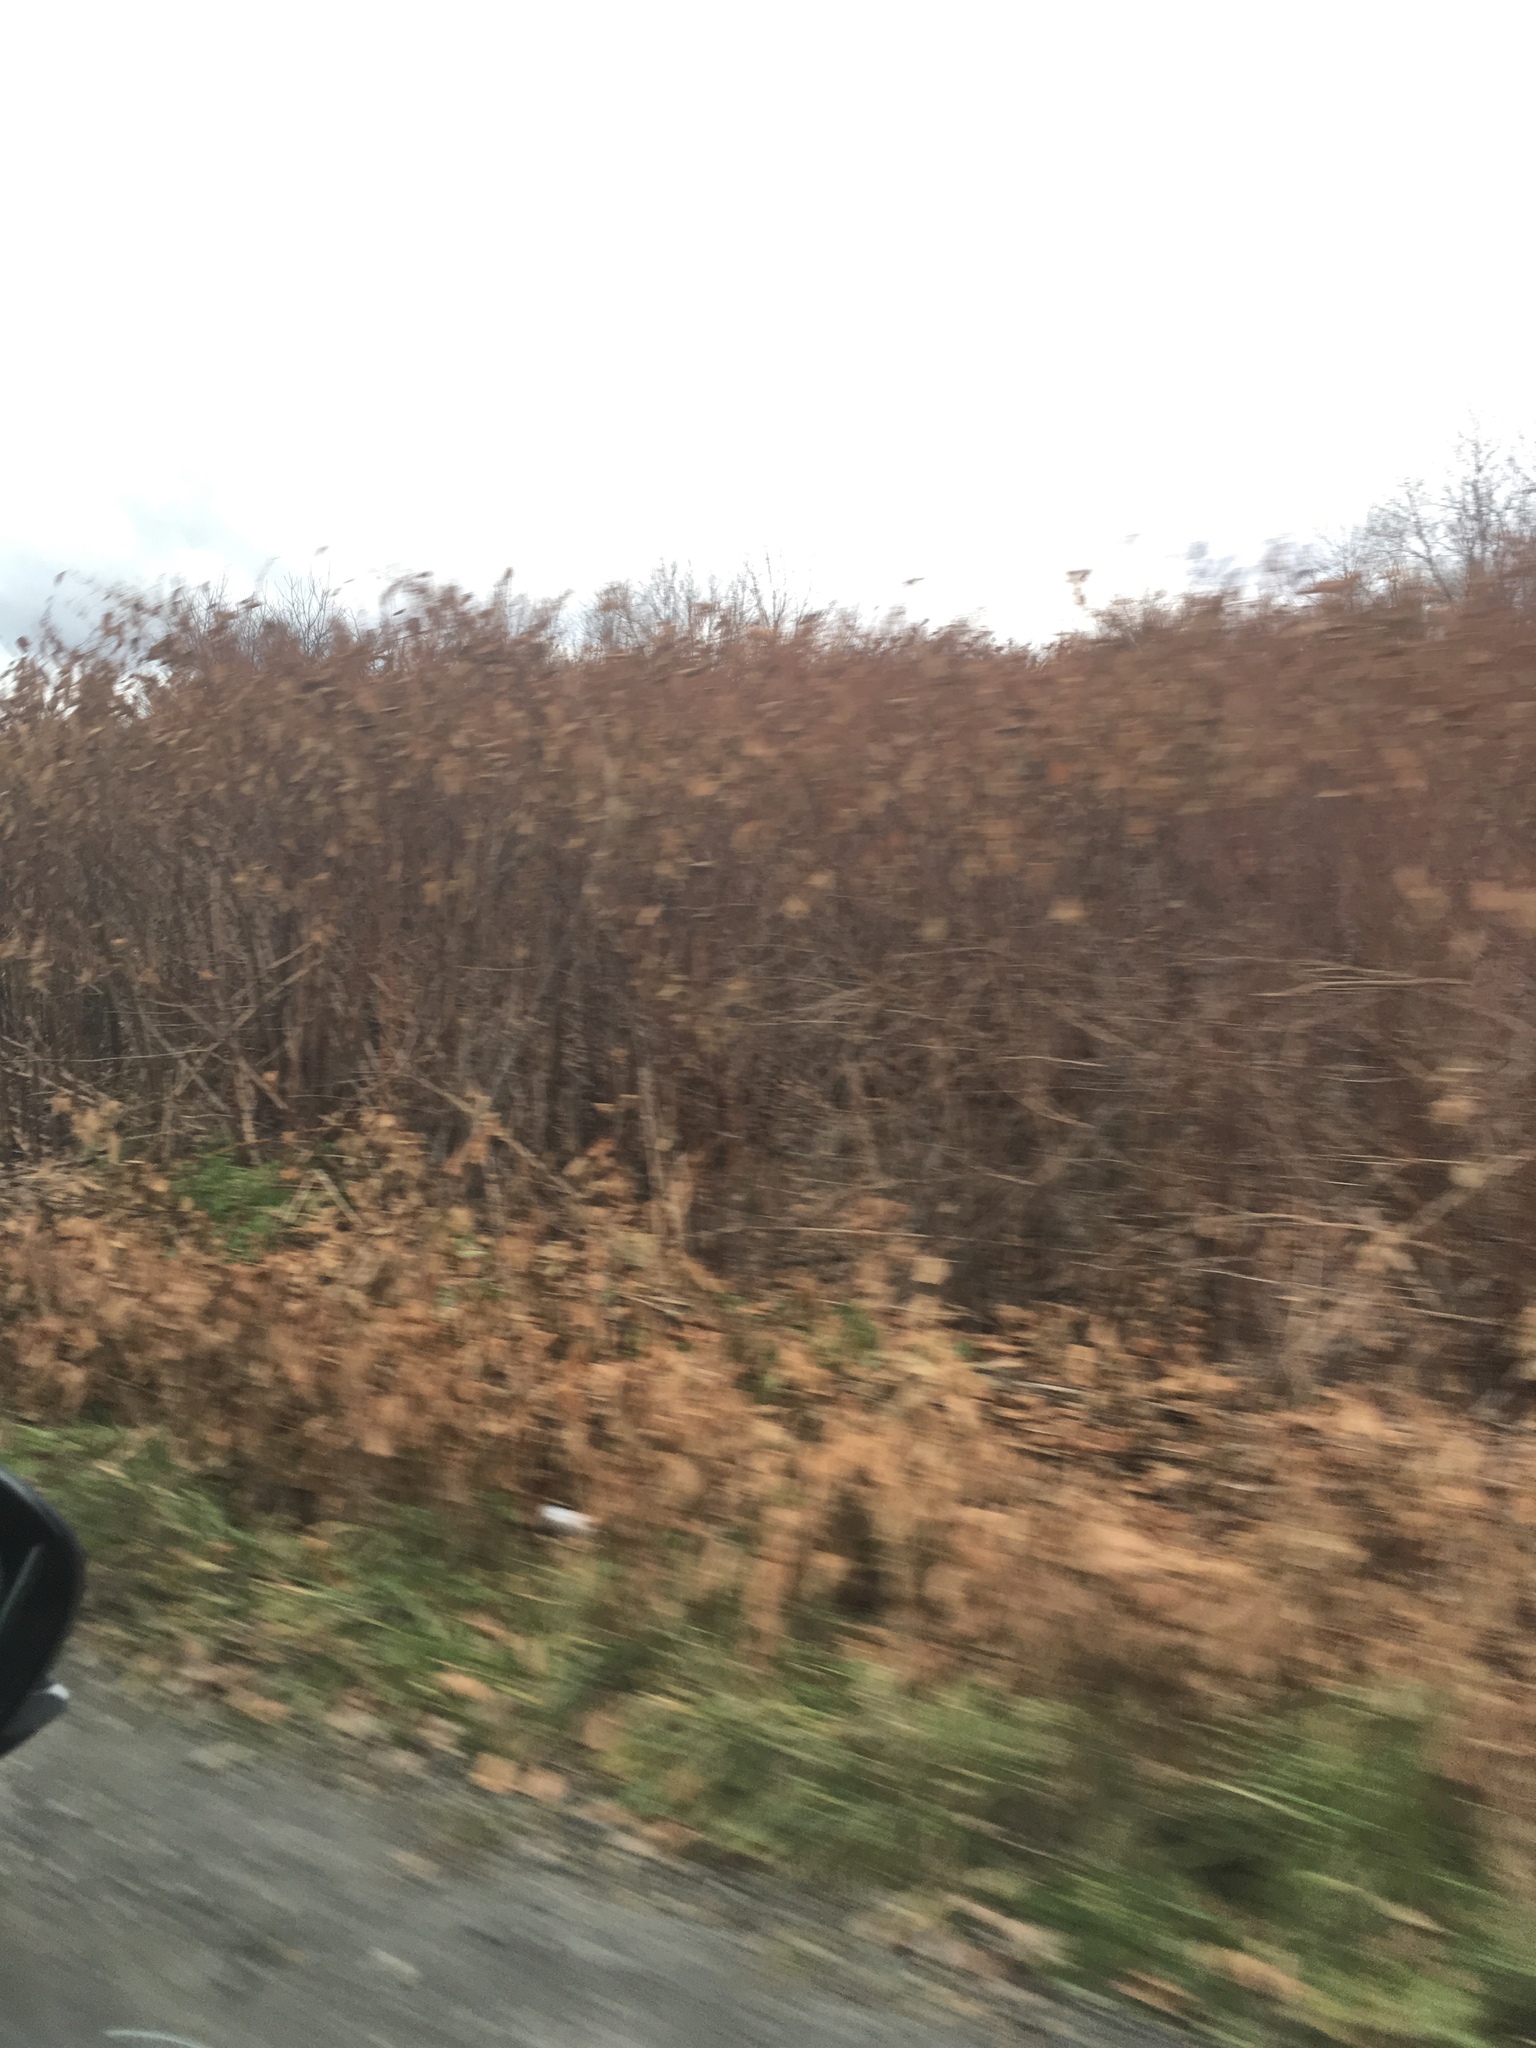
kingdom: Plantae
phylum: Tracheophyta
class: Magnoliopsida
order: Caryophyllales
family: Polygonaceae
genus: Reynoutria
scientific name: Reynoutria japonica
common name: Japanese knotweed
